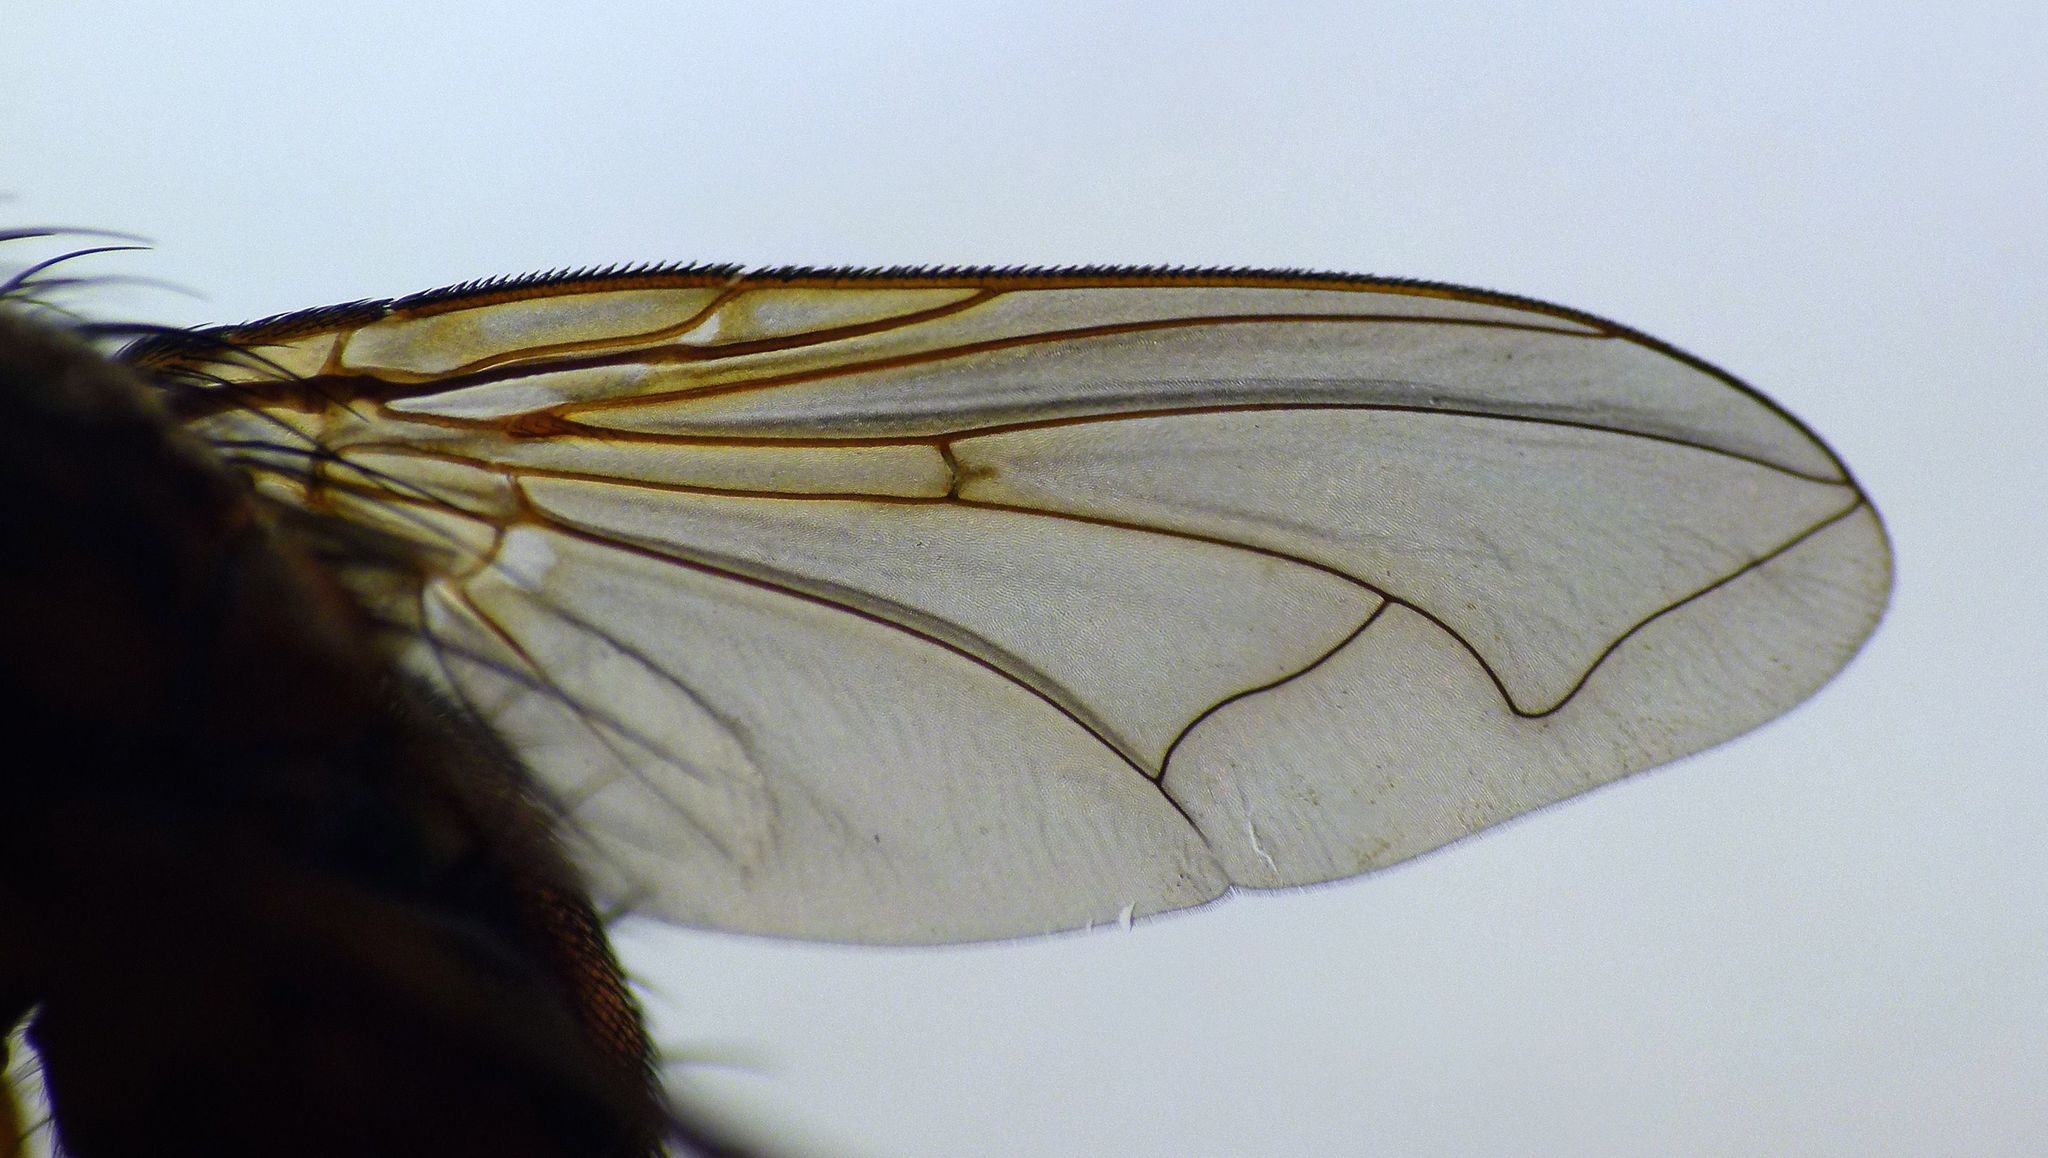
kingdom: Animalia
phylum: Arthropoda
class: Insecta
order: Diptera
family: Tachinidae
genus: Peremptor
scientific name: Peremptor kumaraensis
